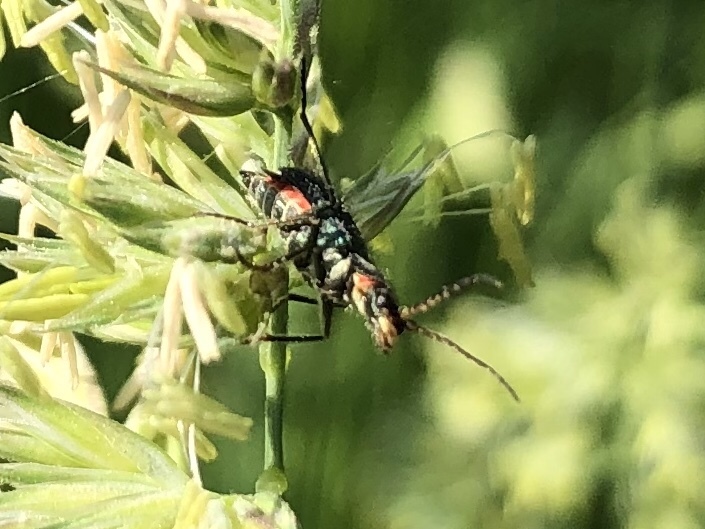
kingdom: Animalia
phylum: Arthropoda
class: Insecta
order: Coleoptera
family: Malachiidae
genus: Clanoptilus
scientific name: Clanoptilus geniculatus
